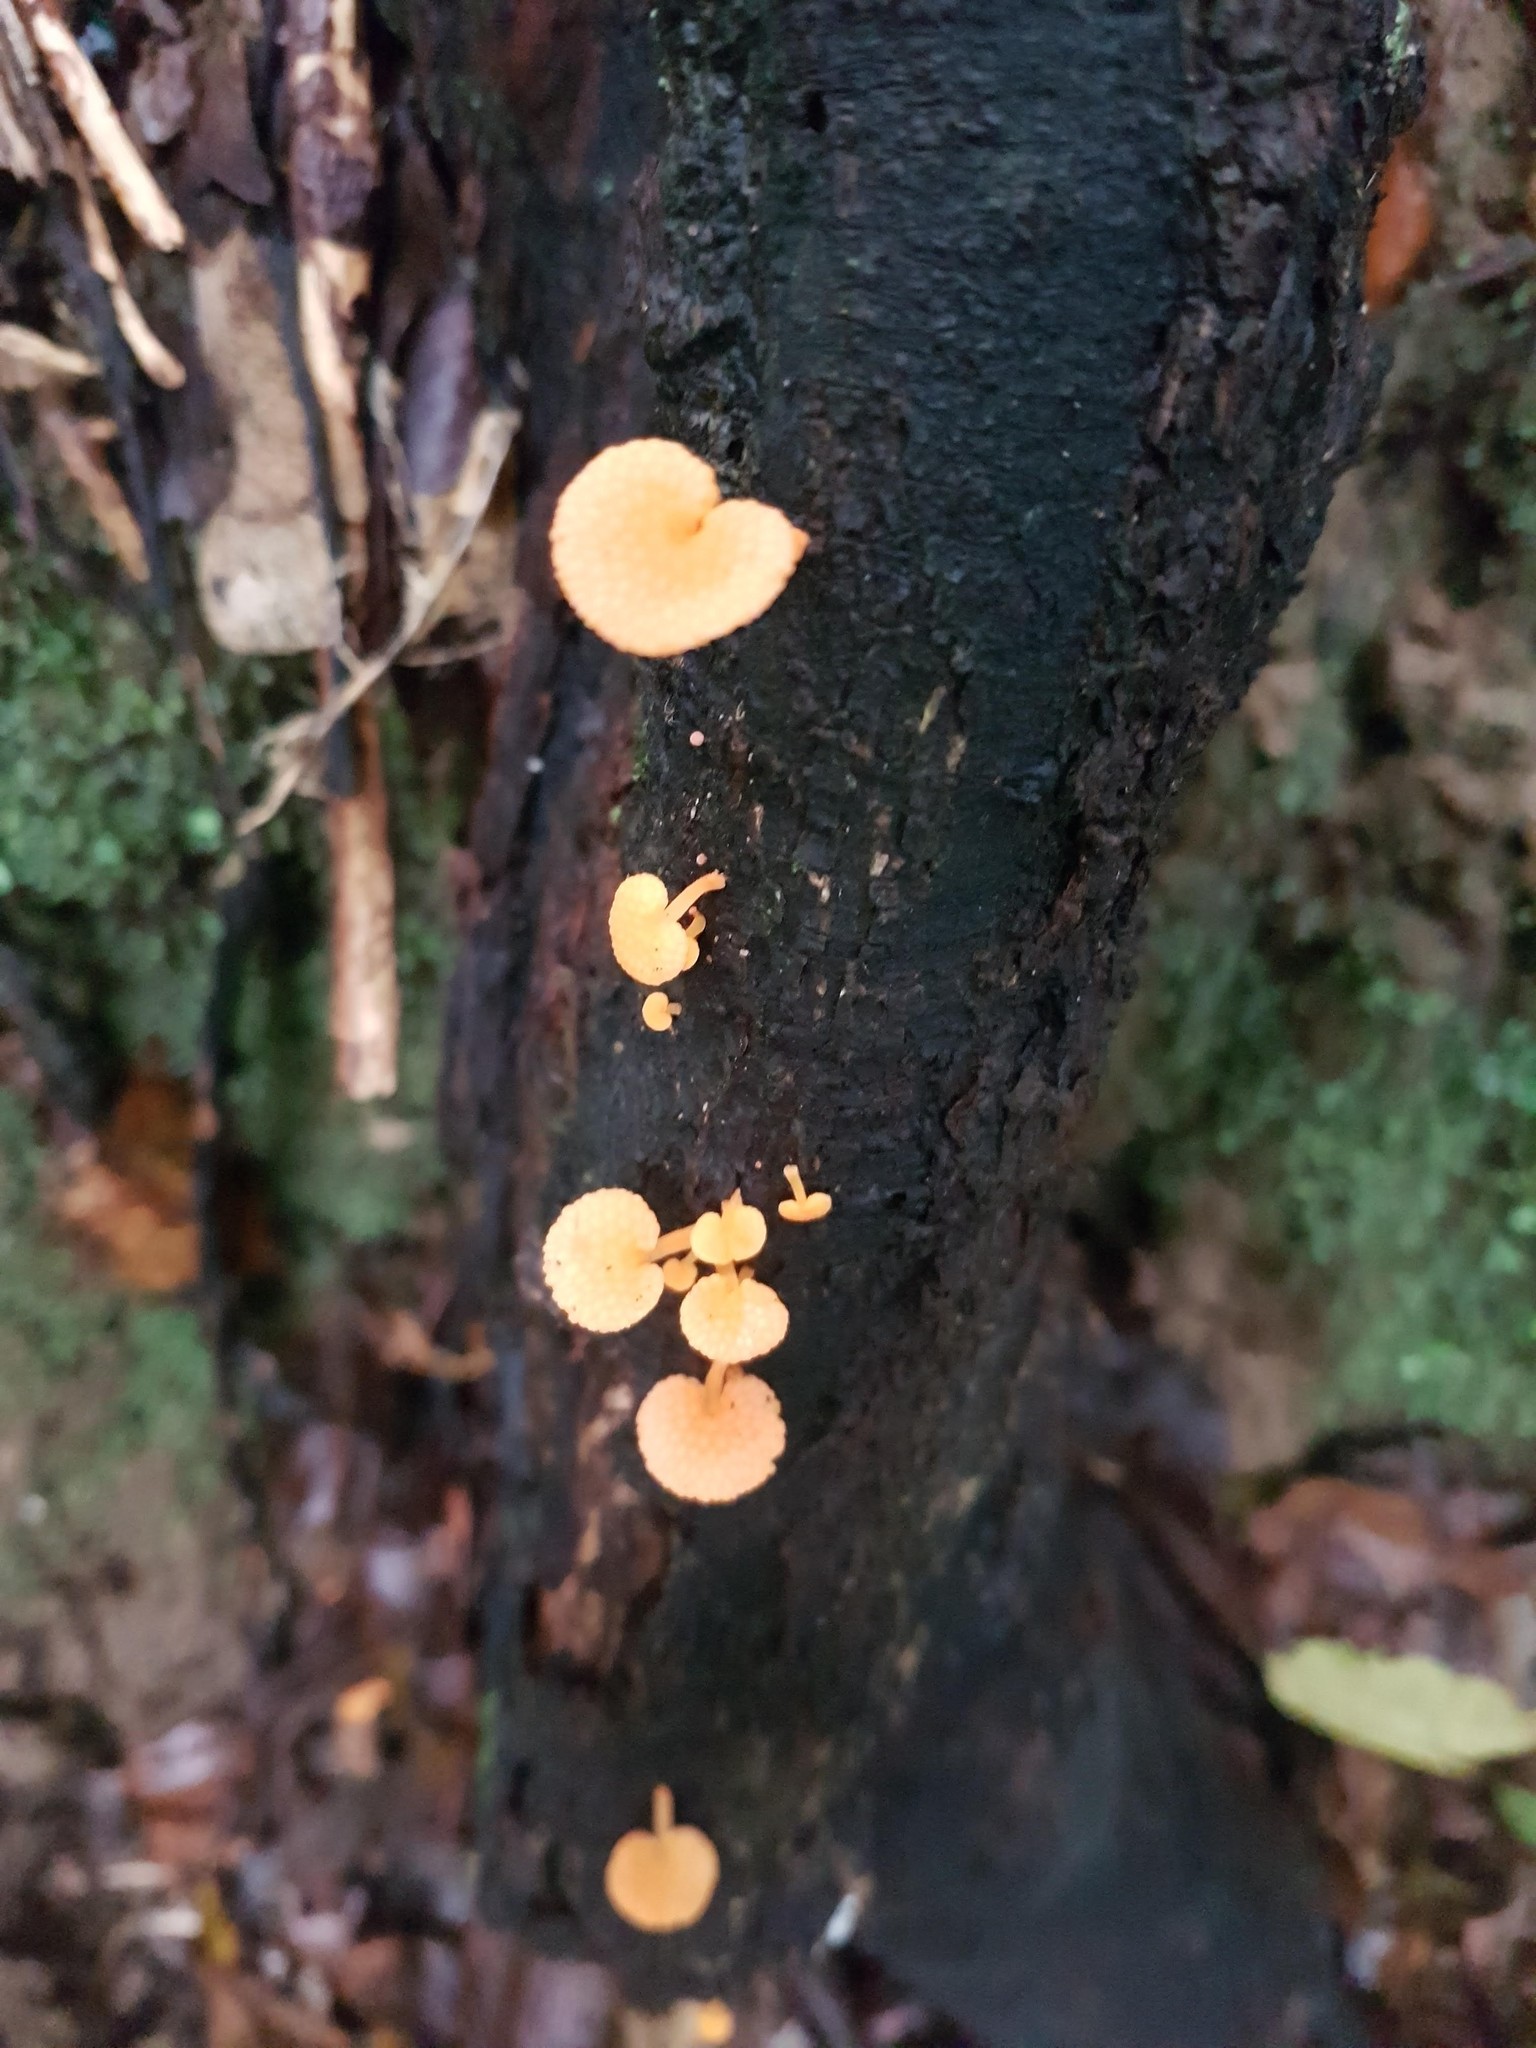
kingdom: Fungi
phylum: Basidiomycota
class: Agaricomycetes
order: Agaricales
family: Mycenaceae
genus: Favolaschia
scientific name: Favolaschia claudopus
